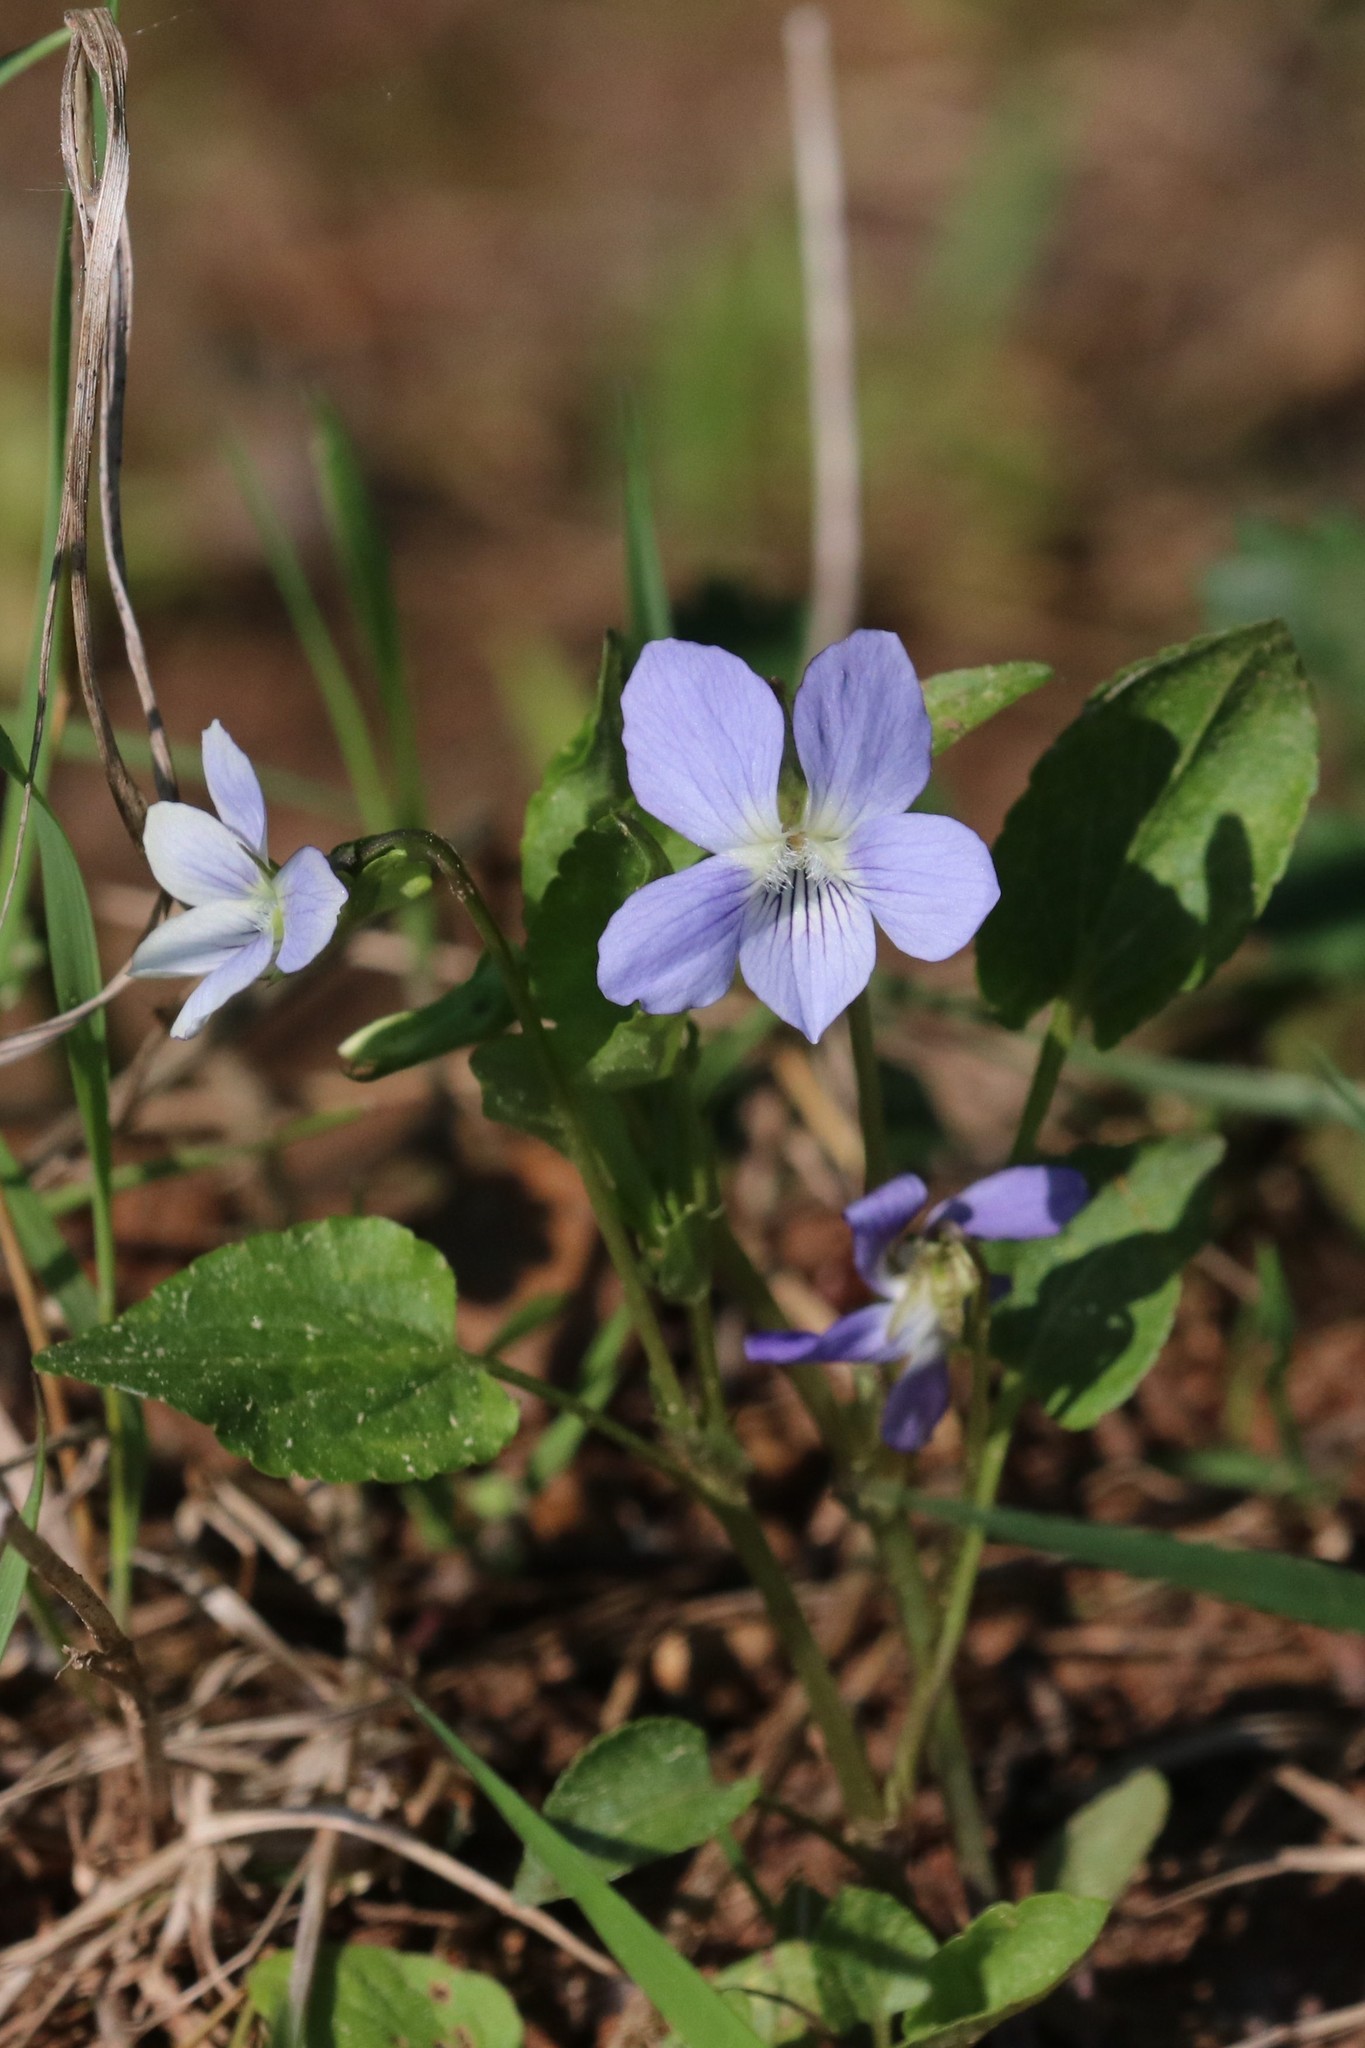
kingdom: Plantae
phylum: Tracheophyta
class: Magnoliopsida
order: Malpighiales
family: Violaceae
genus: Viola
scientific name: Viola canina
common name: Heath dog-violet
